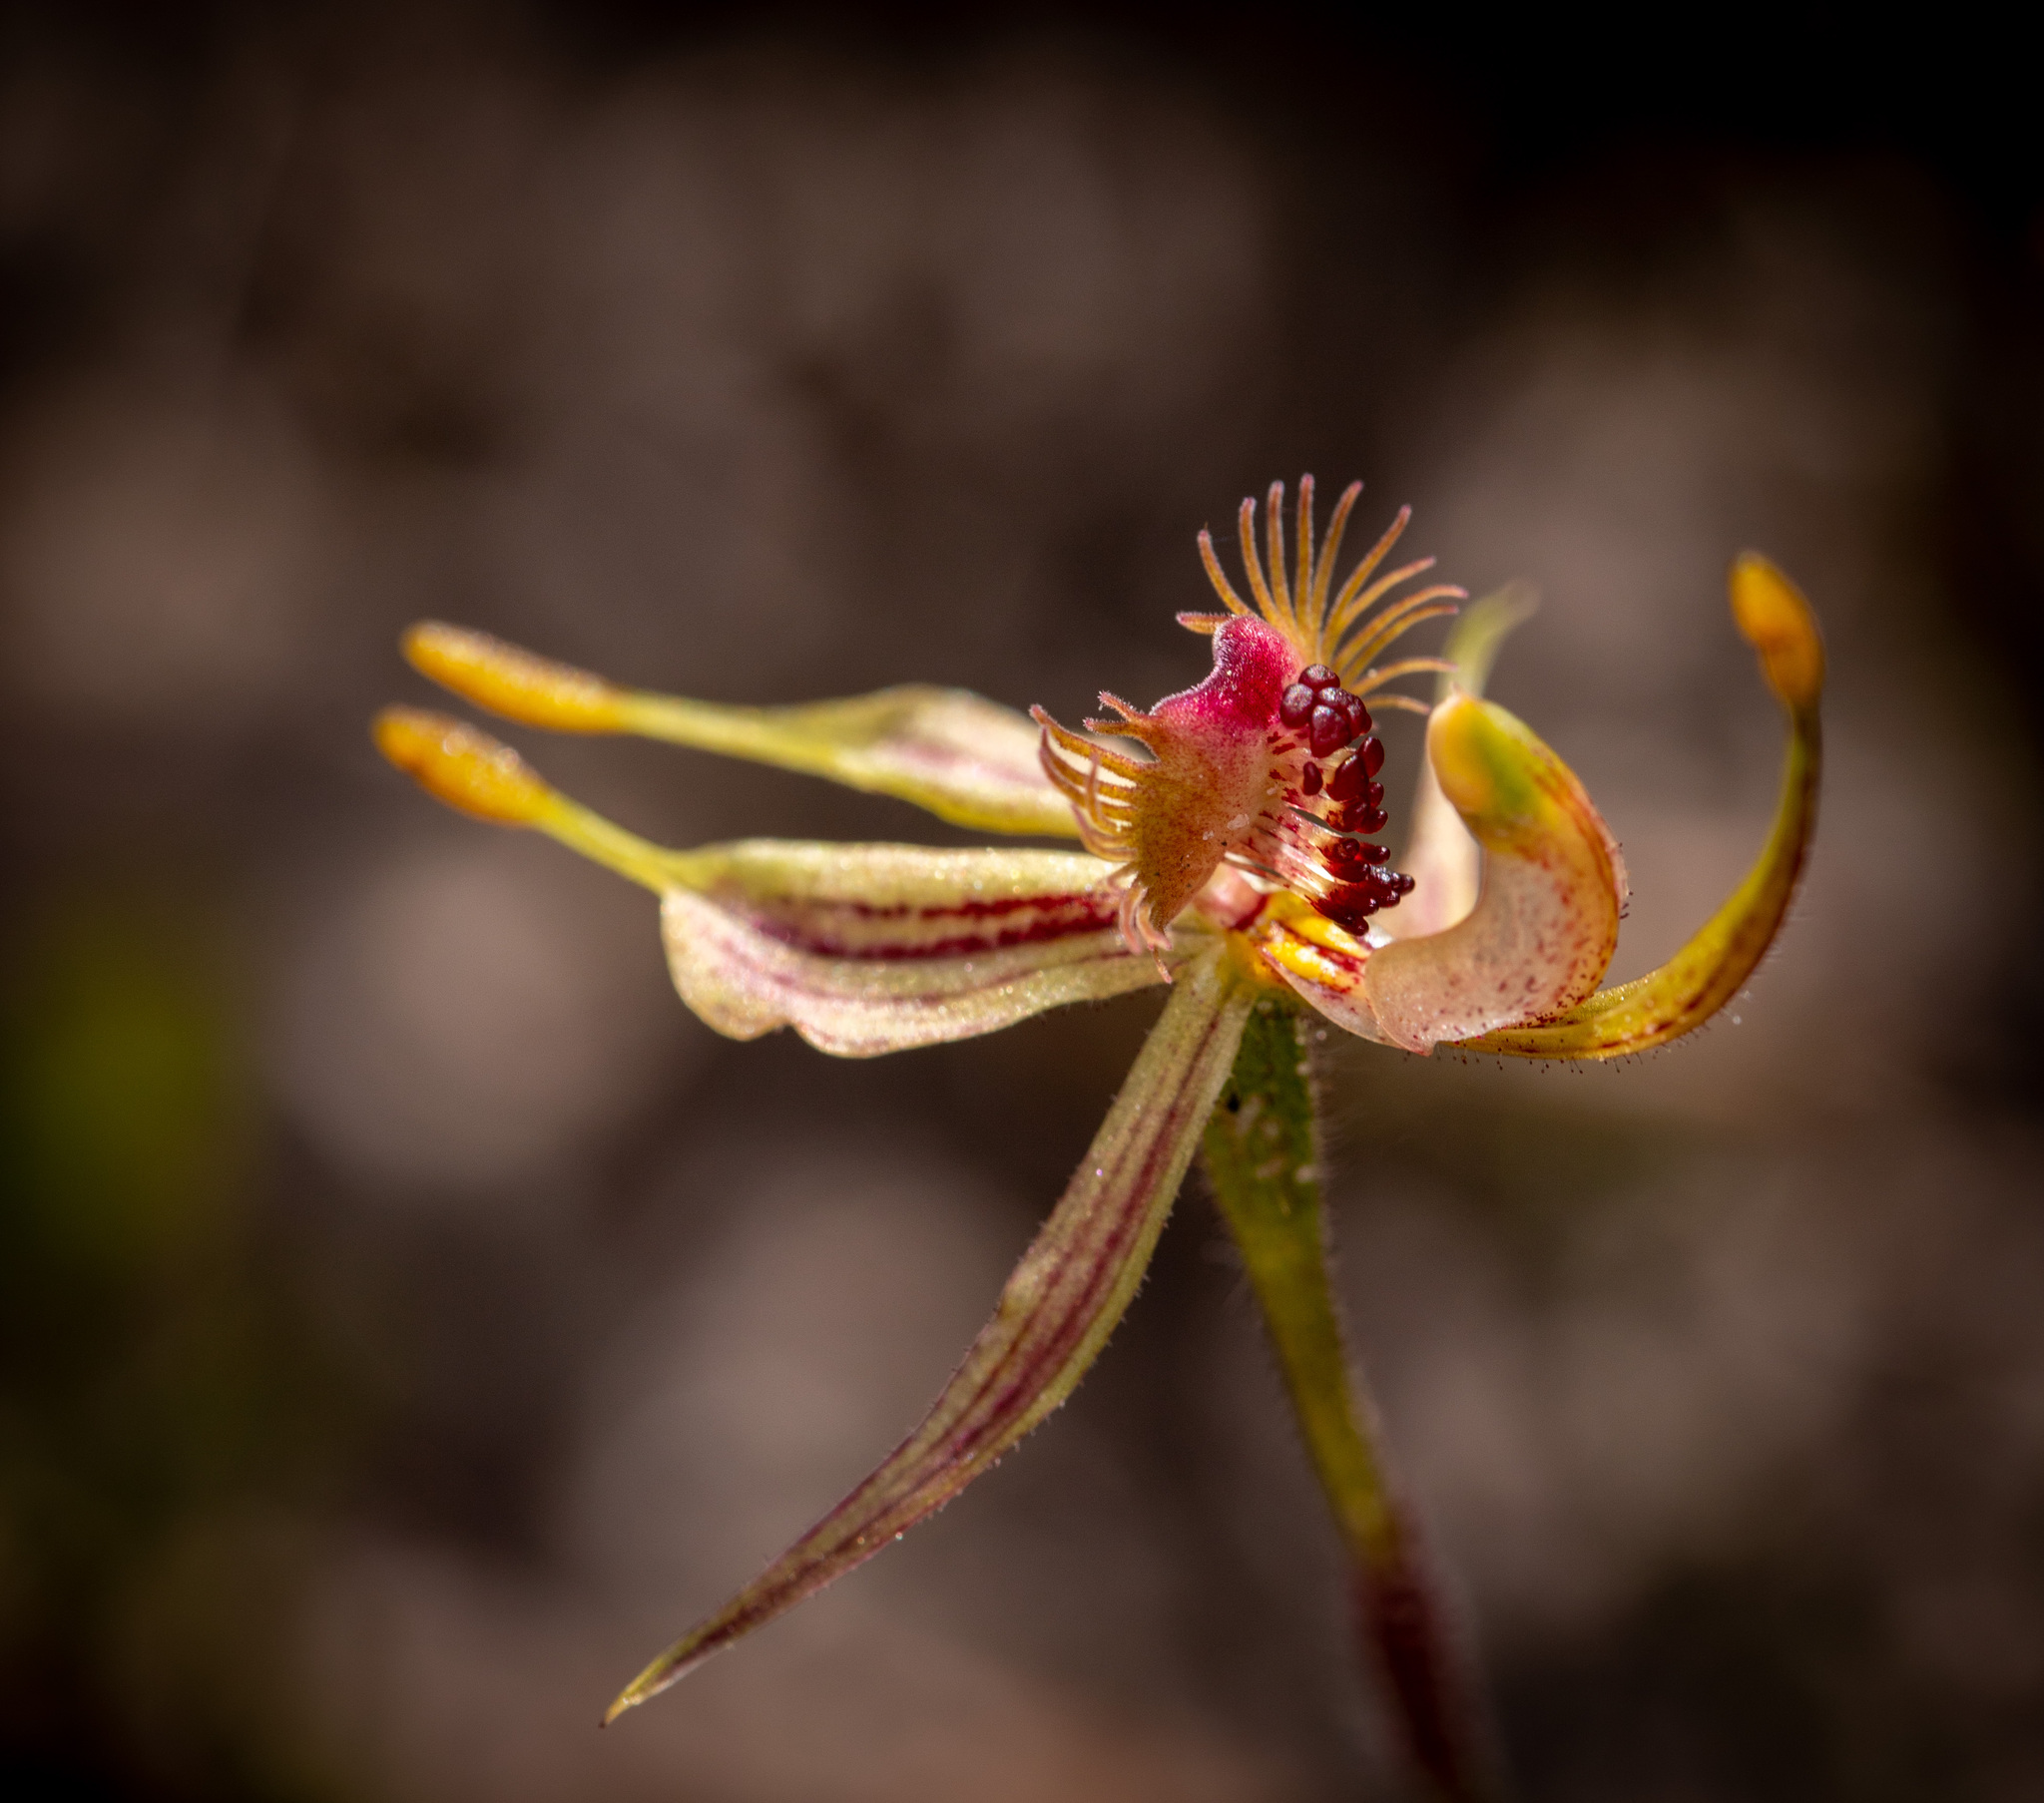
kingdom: Plantae
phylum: Tracheophyta
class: Liliopsida
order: Asparagales
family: Orchidaceae
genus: Caladenia
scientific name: Caladenia plicata
